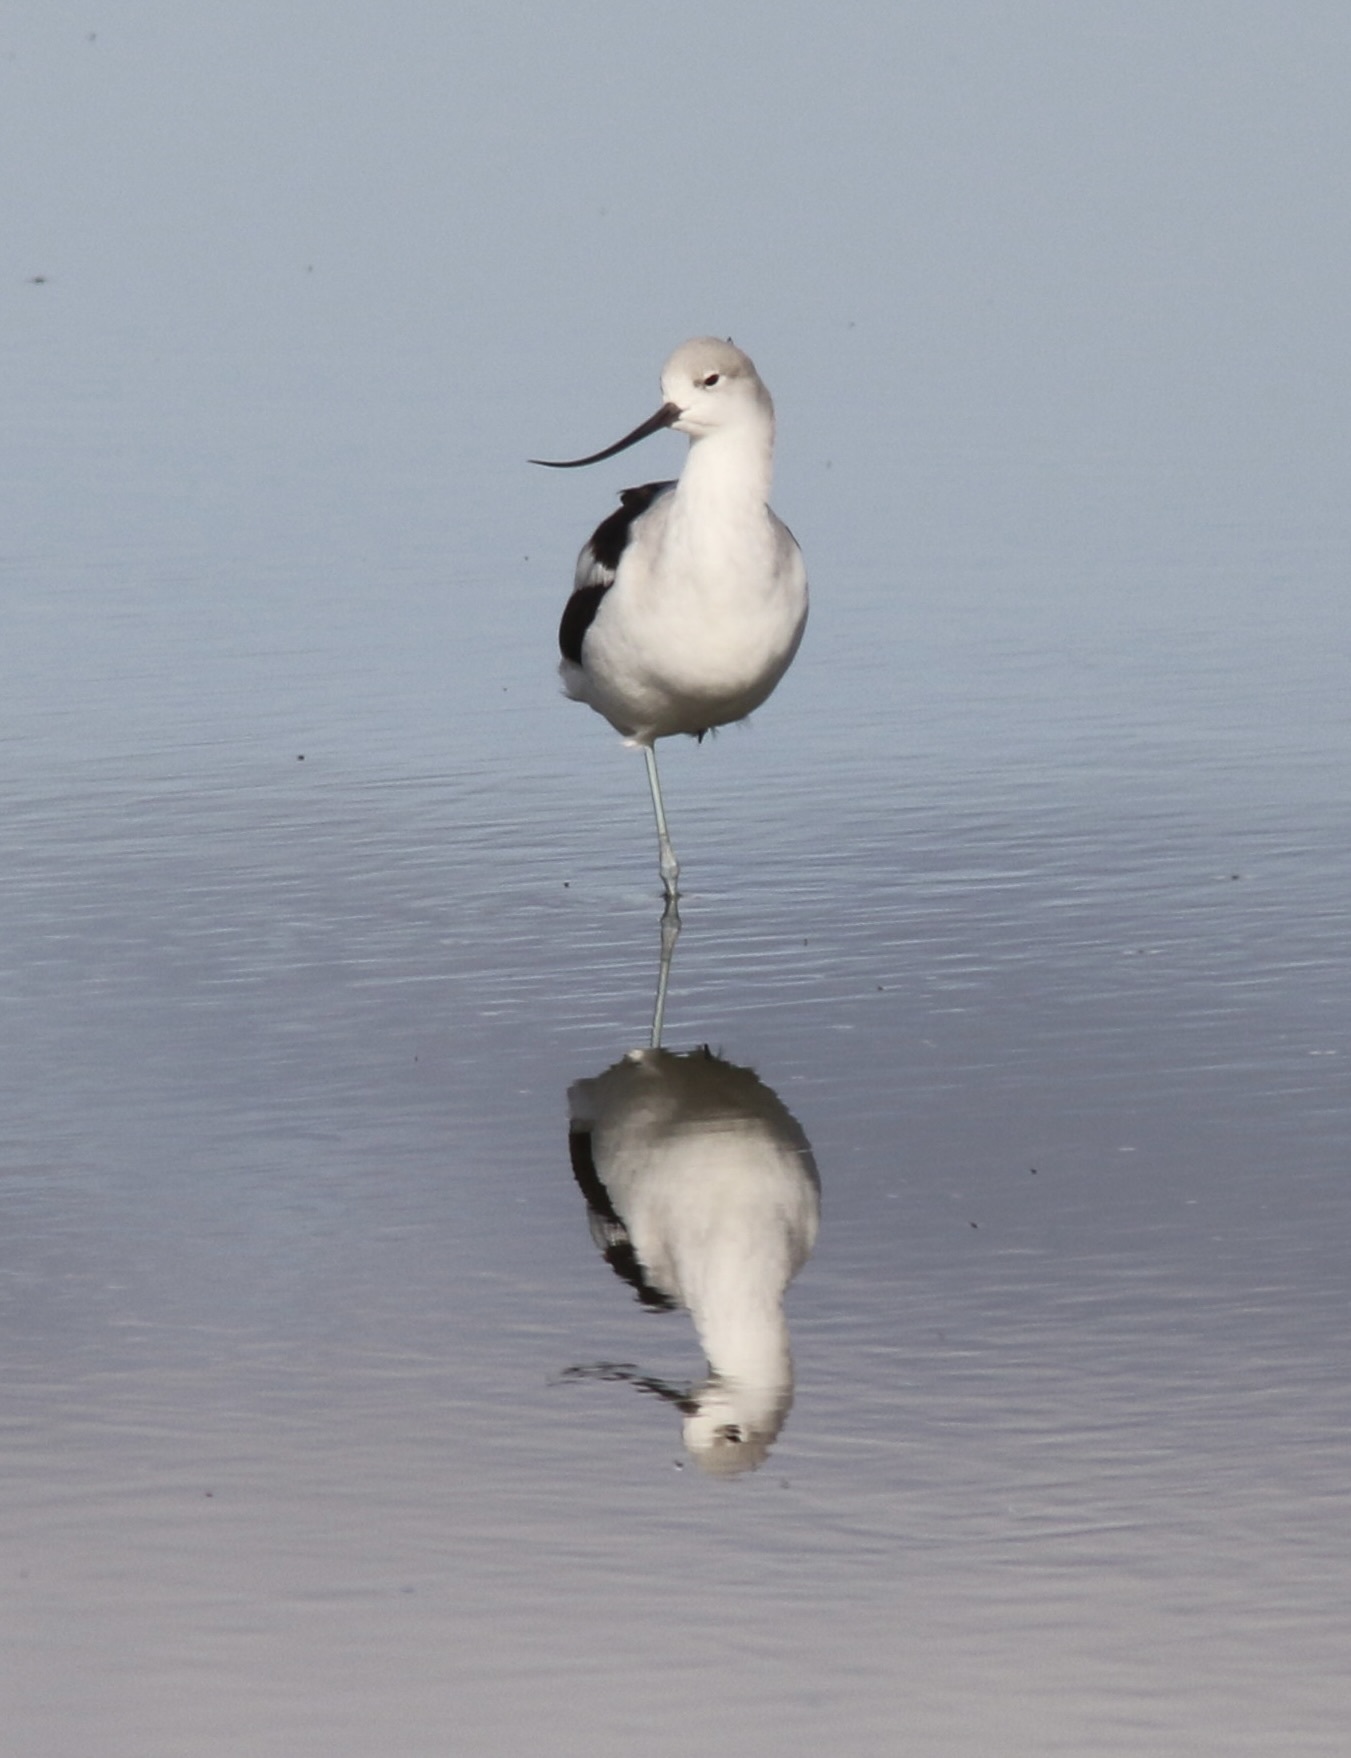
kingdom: Animalia
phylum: Chordata
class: Aves
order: Charadriiformes
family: Recurvirostridae
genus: Recurvirostra
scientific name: Recurvirostra americana
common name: American avocet
